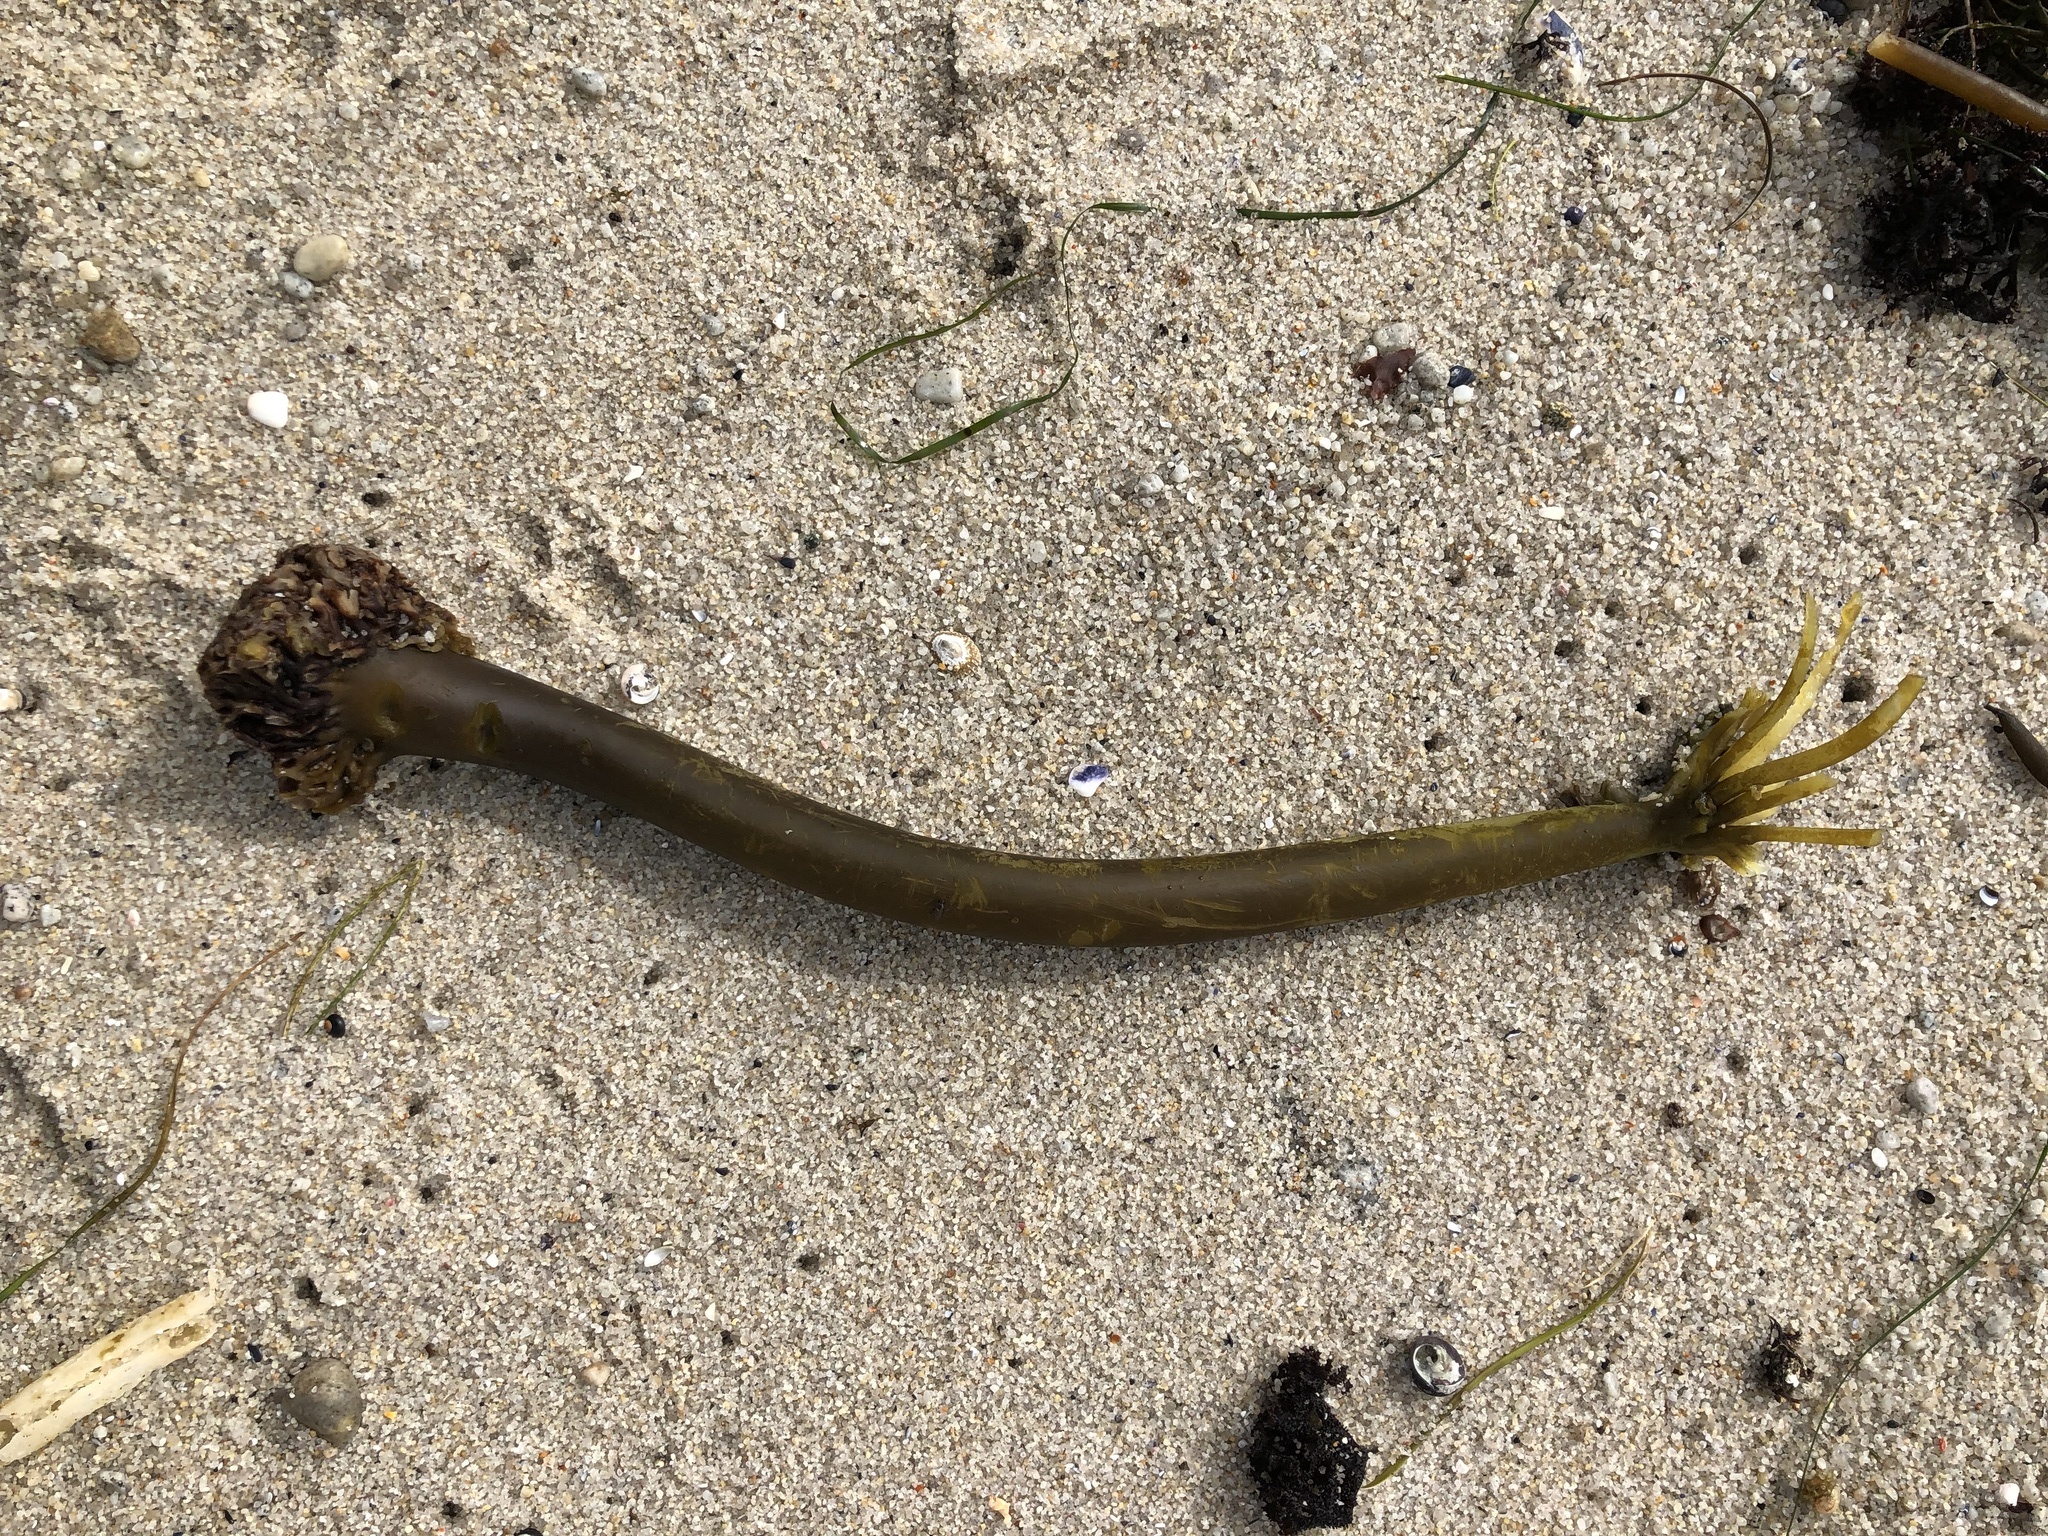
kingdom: Chromista
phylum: Ochrophyta
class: Phaeophyceae
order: Laminariales
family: Laminariaceae
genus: Postelsia
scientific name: Postelsia palmiformis
